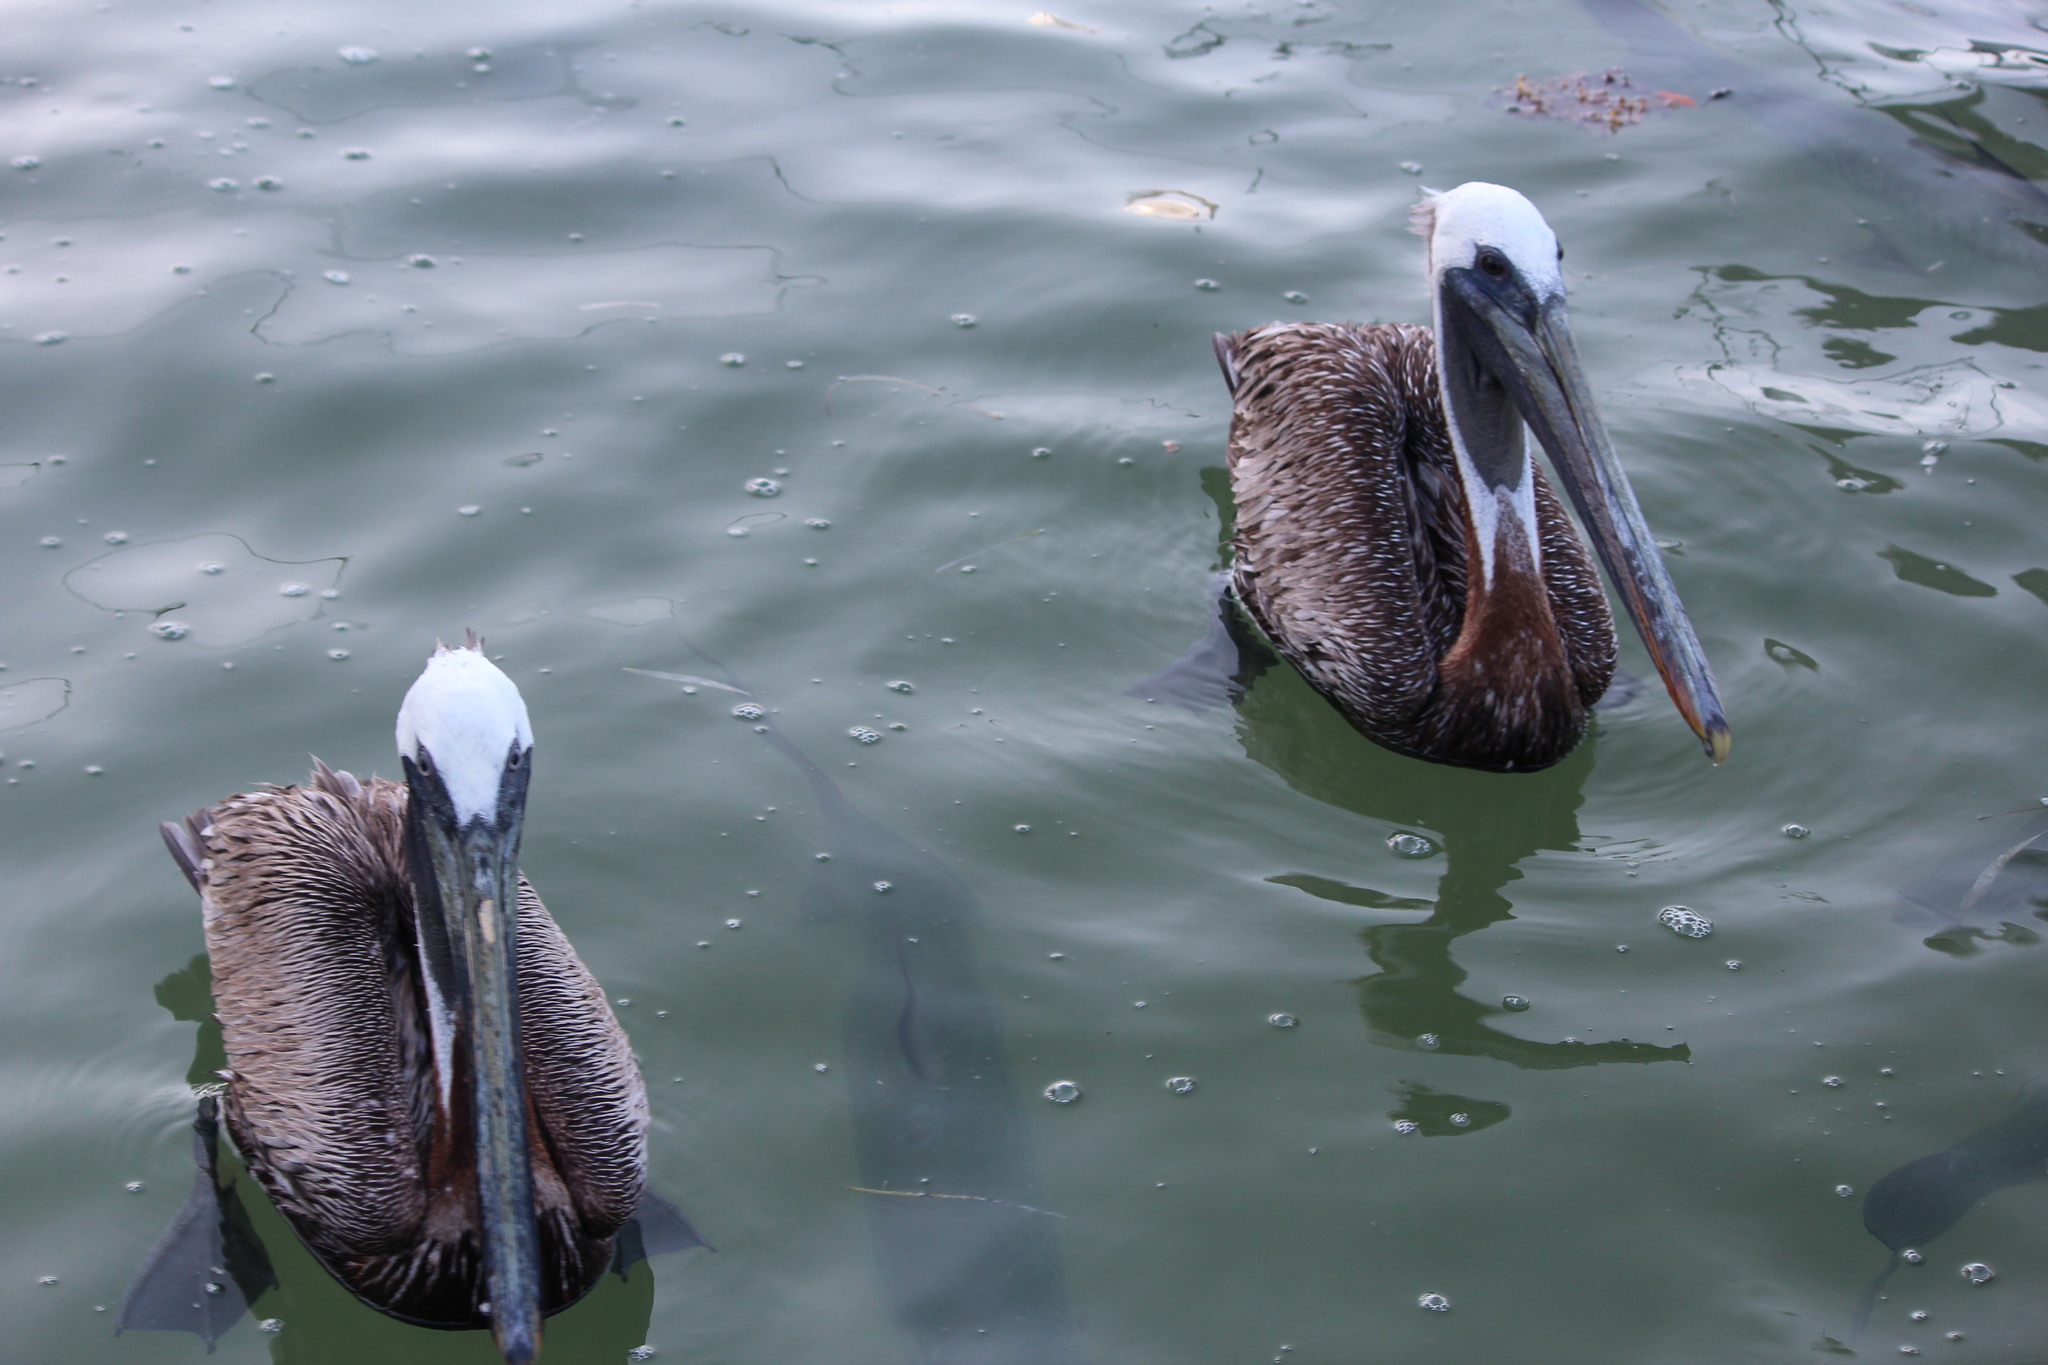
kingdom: Animalia
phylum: Chordata
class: Aves
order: Pelecaniformes
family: Pelecanidae
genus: Pelecanus
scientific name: Pelecanus occidentalis
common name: Brown pelican
